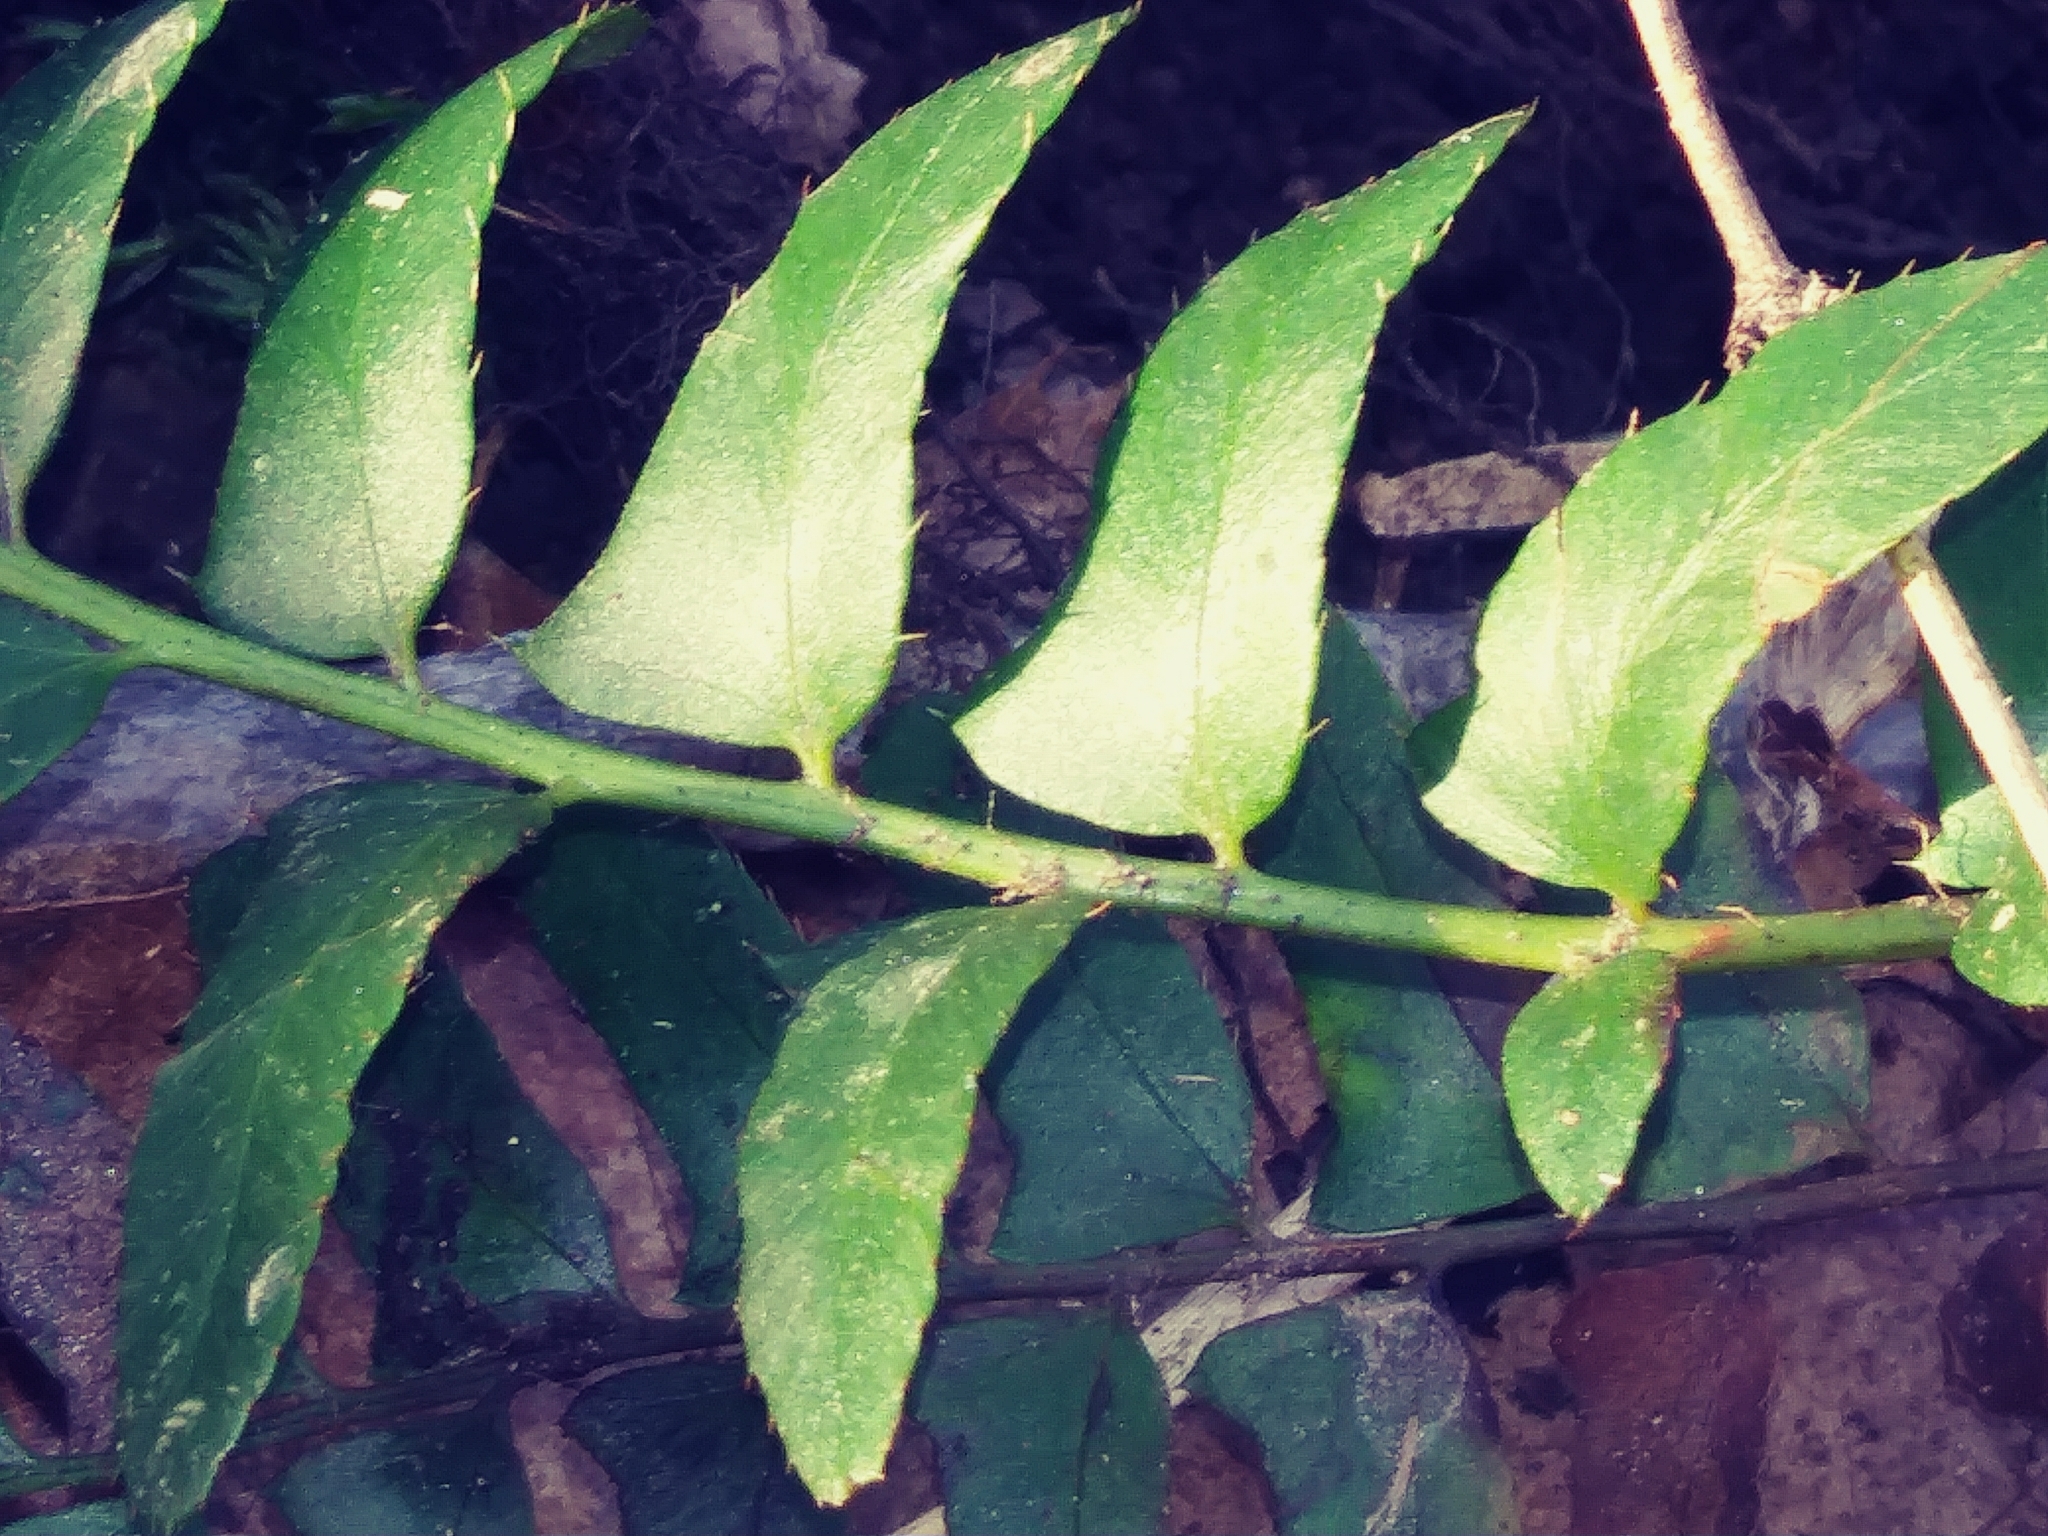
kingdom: Plantae
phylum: Tracheophyta
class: Polypodiopsida
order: Polypodiales
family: Dryopteridaceae
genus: Polystichum
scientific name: Polystichum acrostichoides
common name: Christmas fern
